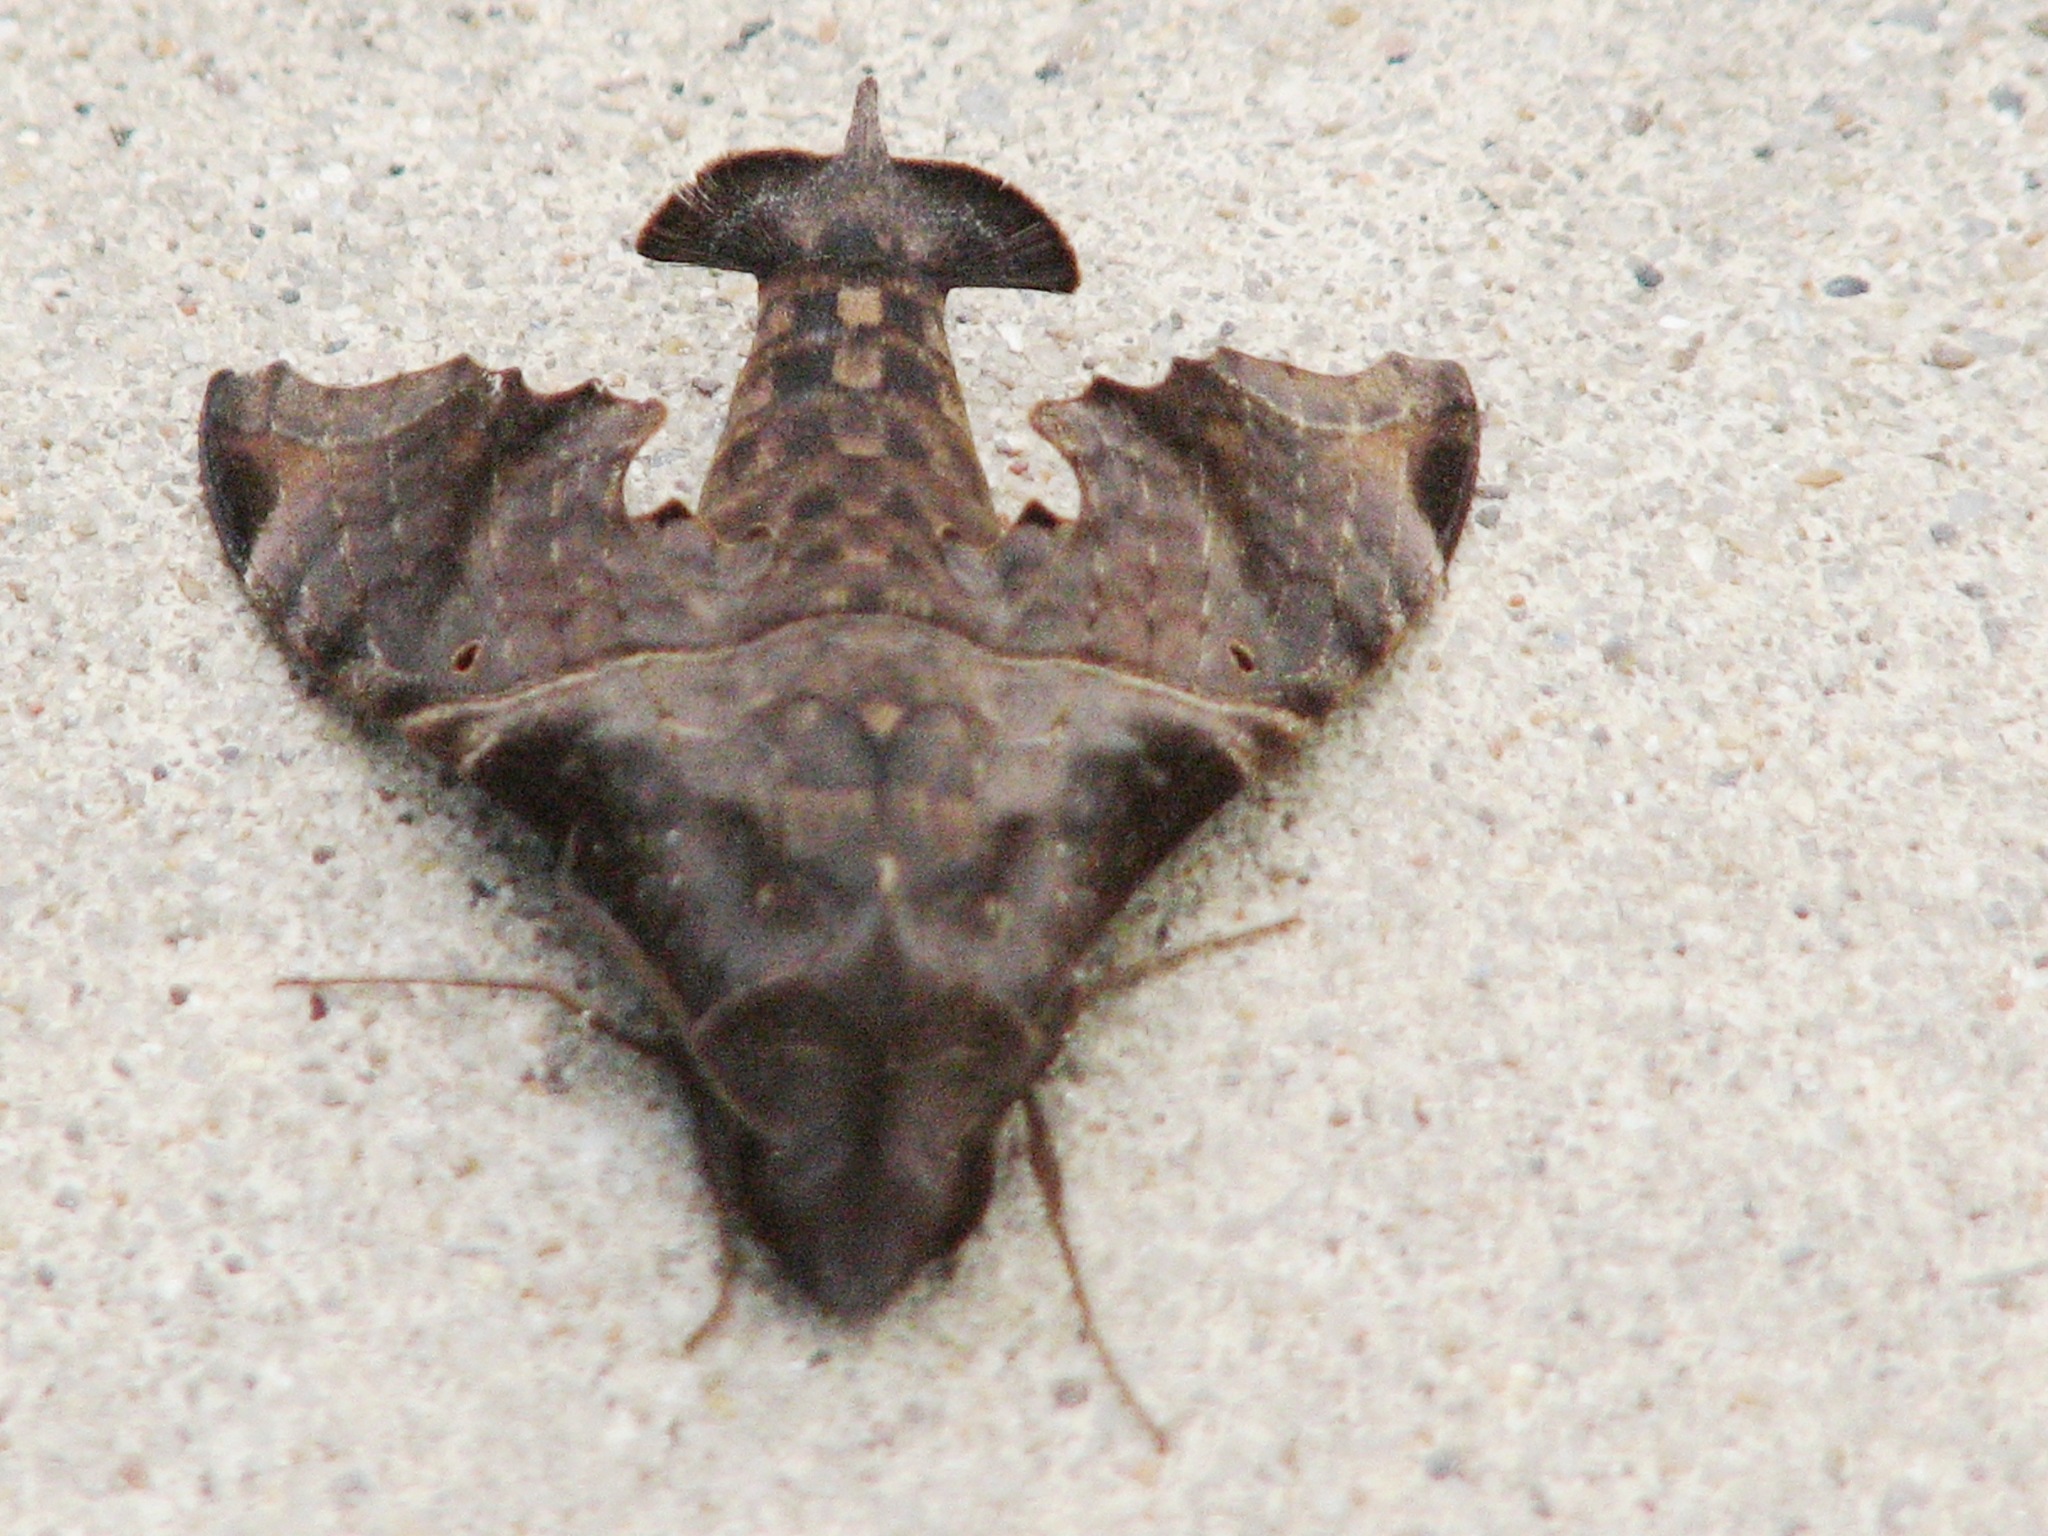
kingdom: Animalia
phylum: Arthropoda
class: Insecta
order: Lepidoptera
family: Sphingidae
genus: Enyo
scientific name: Enyo lugubris
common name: Mournful sphinx
